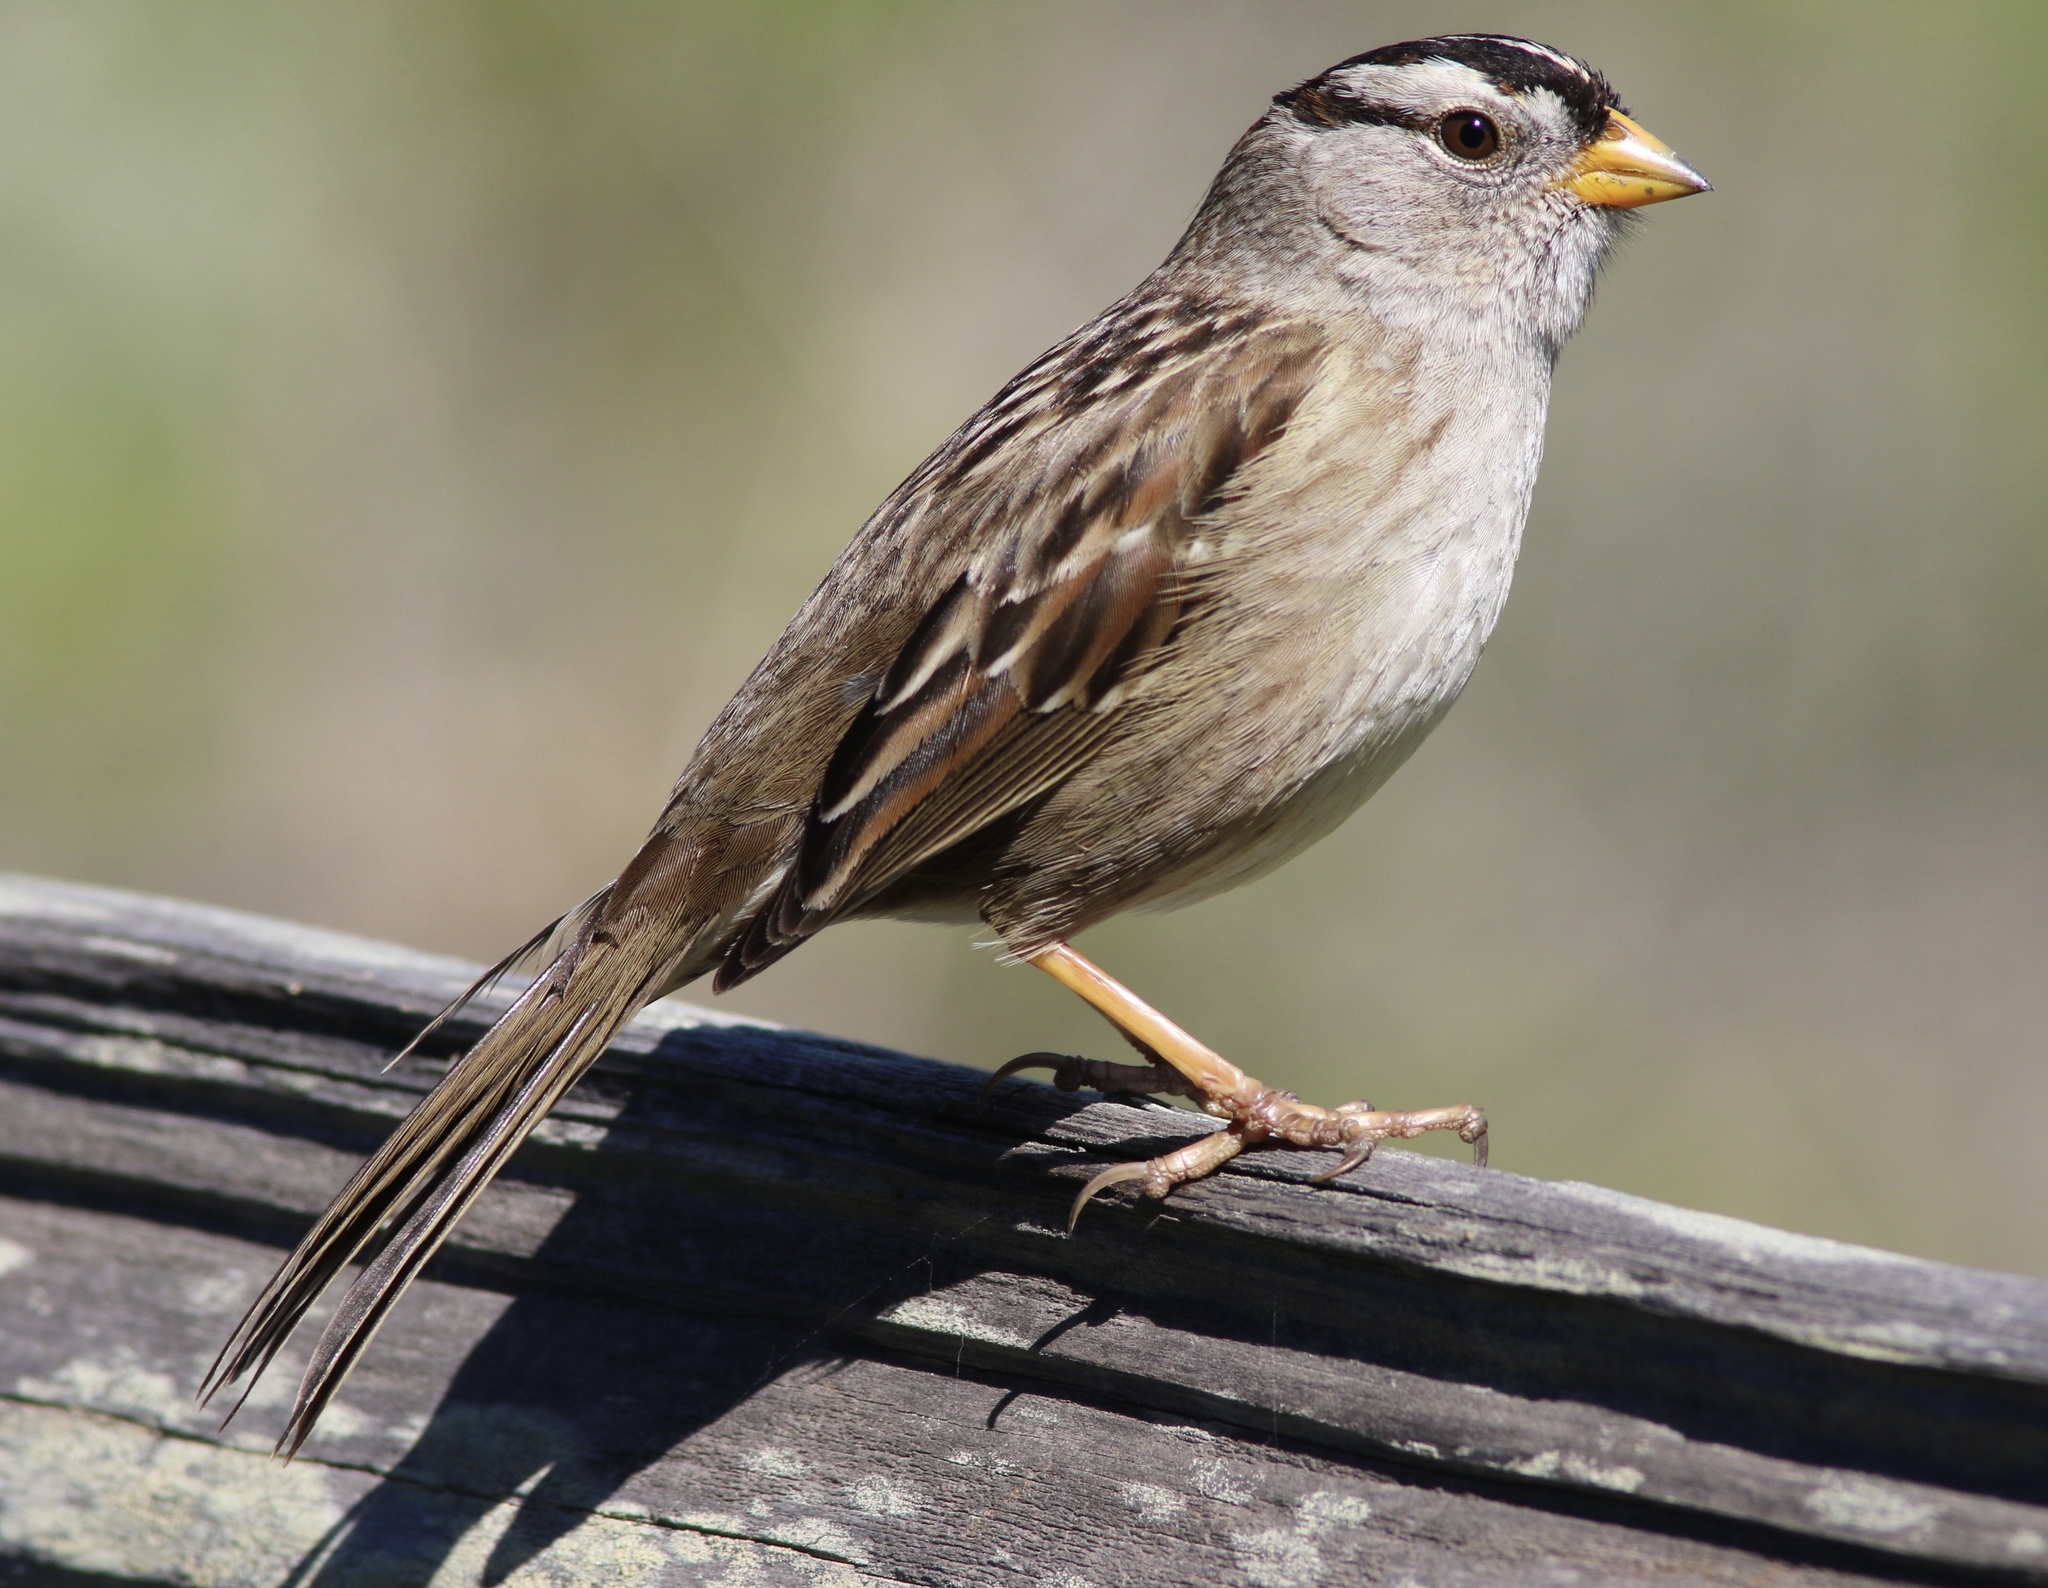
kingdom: Animalia
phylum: Chordata
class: Aves
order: Passeriformes
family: Passerellidae
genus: Zonotrichia
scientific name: Zonotrichia leucophrys
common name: White-crowned sparrow
